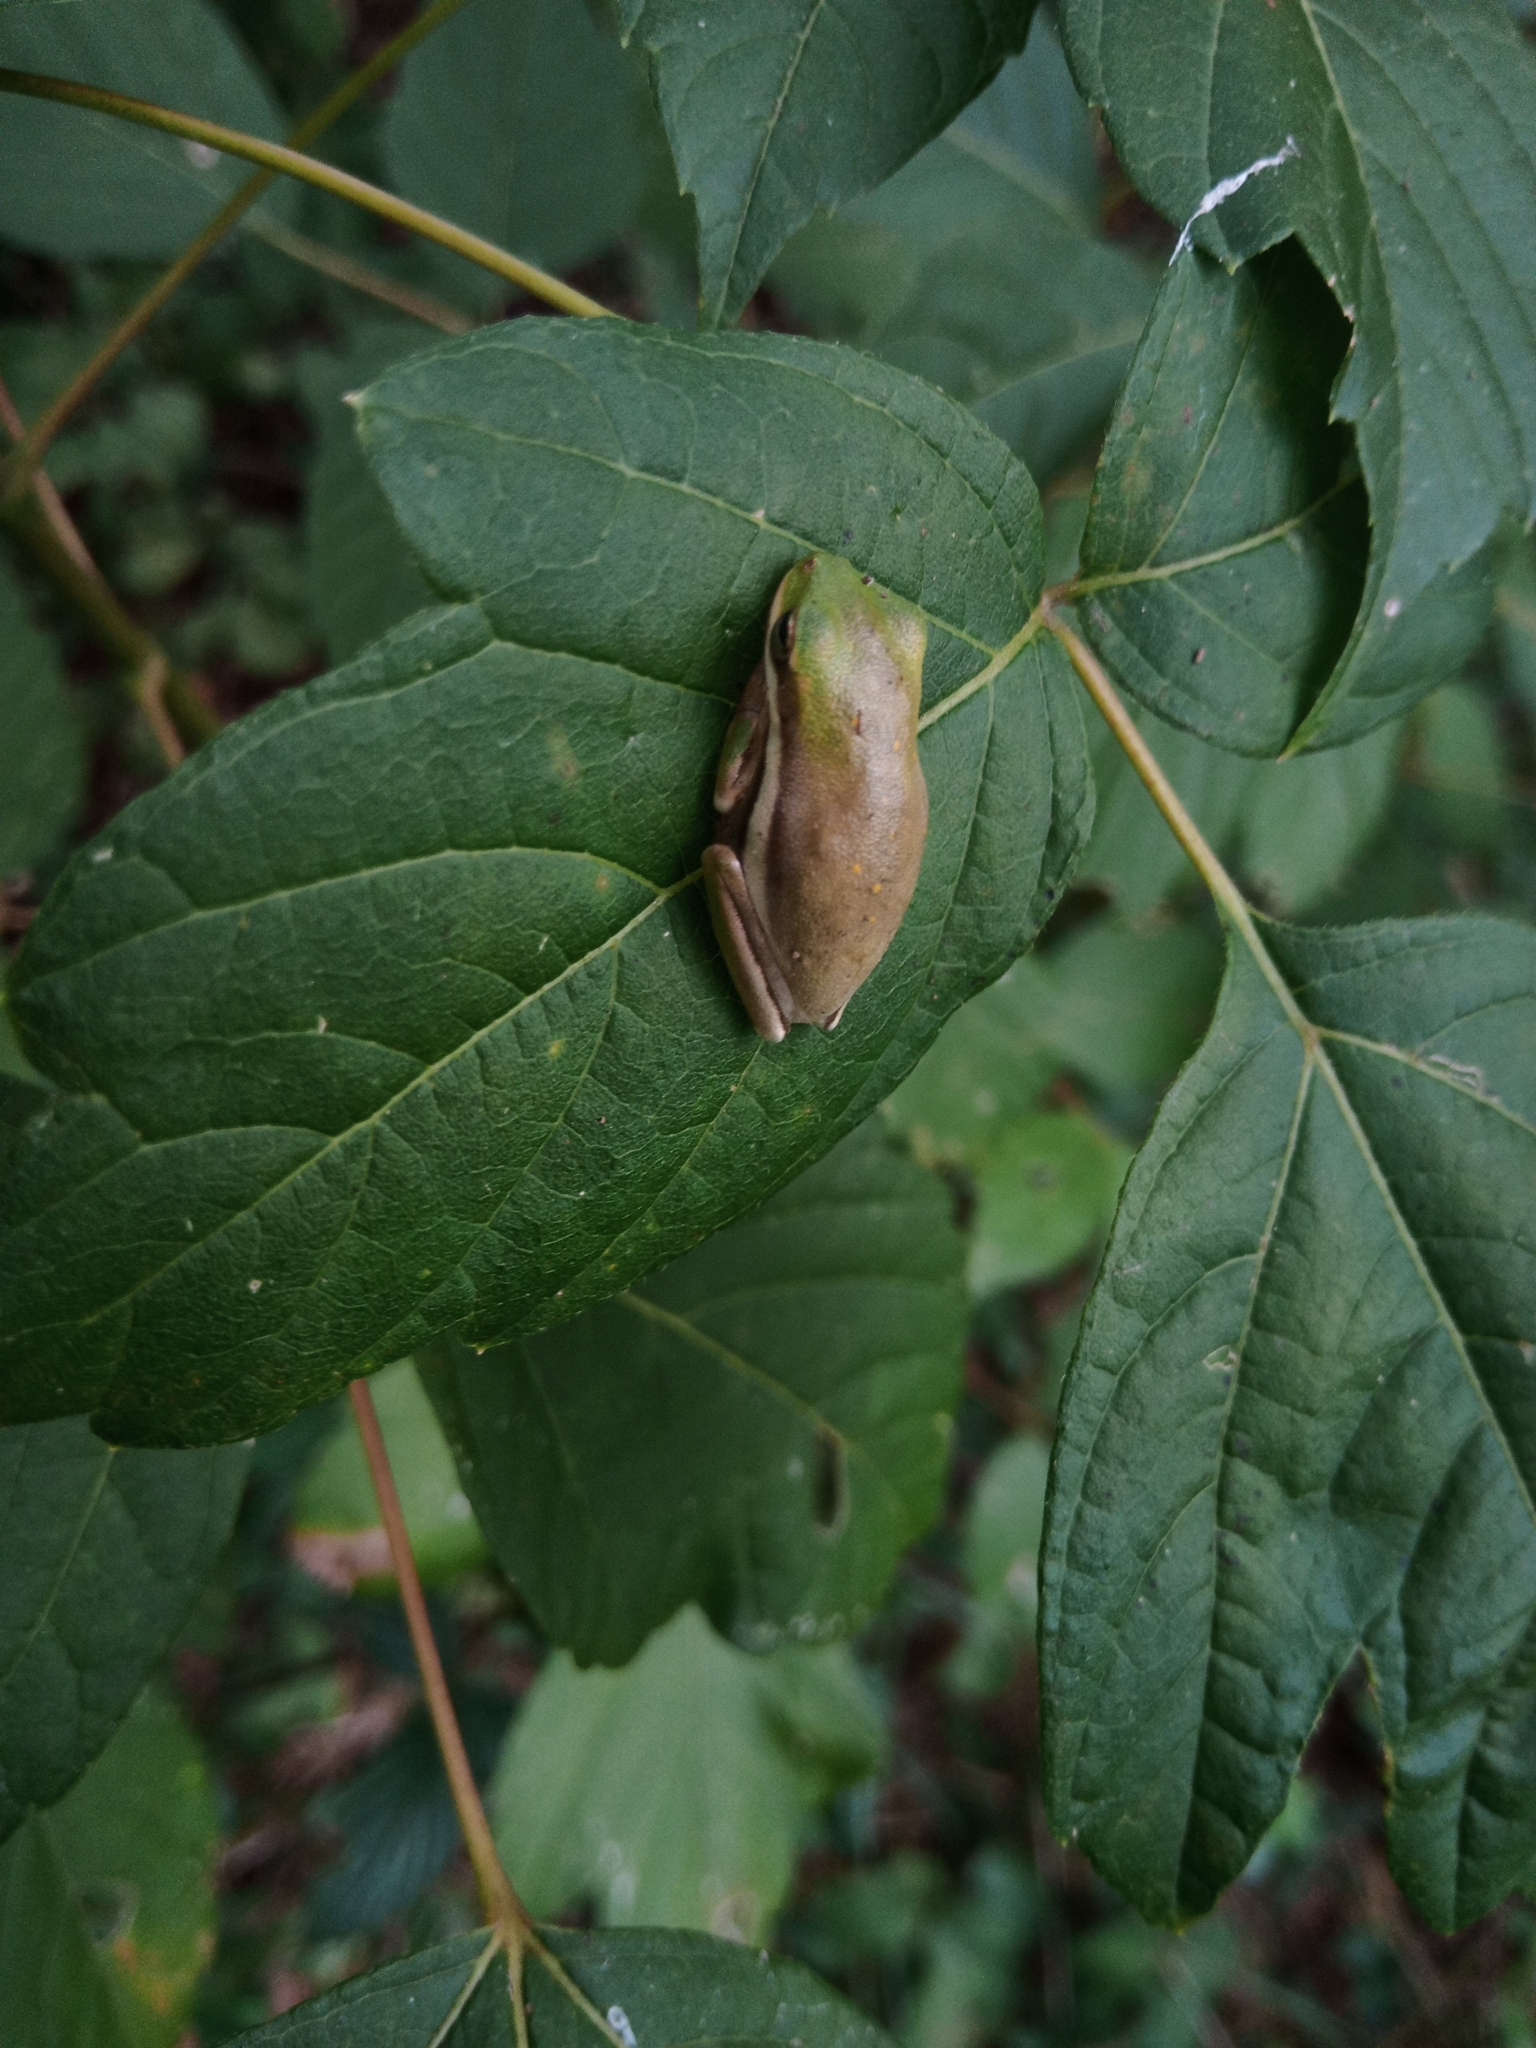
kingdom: Animalia
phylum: Chordata
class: Amphibia
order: Anura
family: Hylidae
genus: Dryophytes
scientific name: Dryophytes cinereus
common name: Green treefrog
